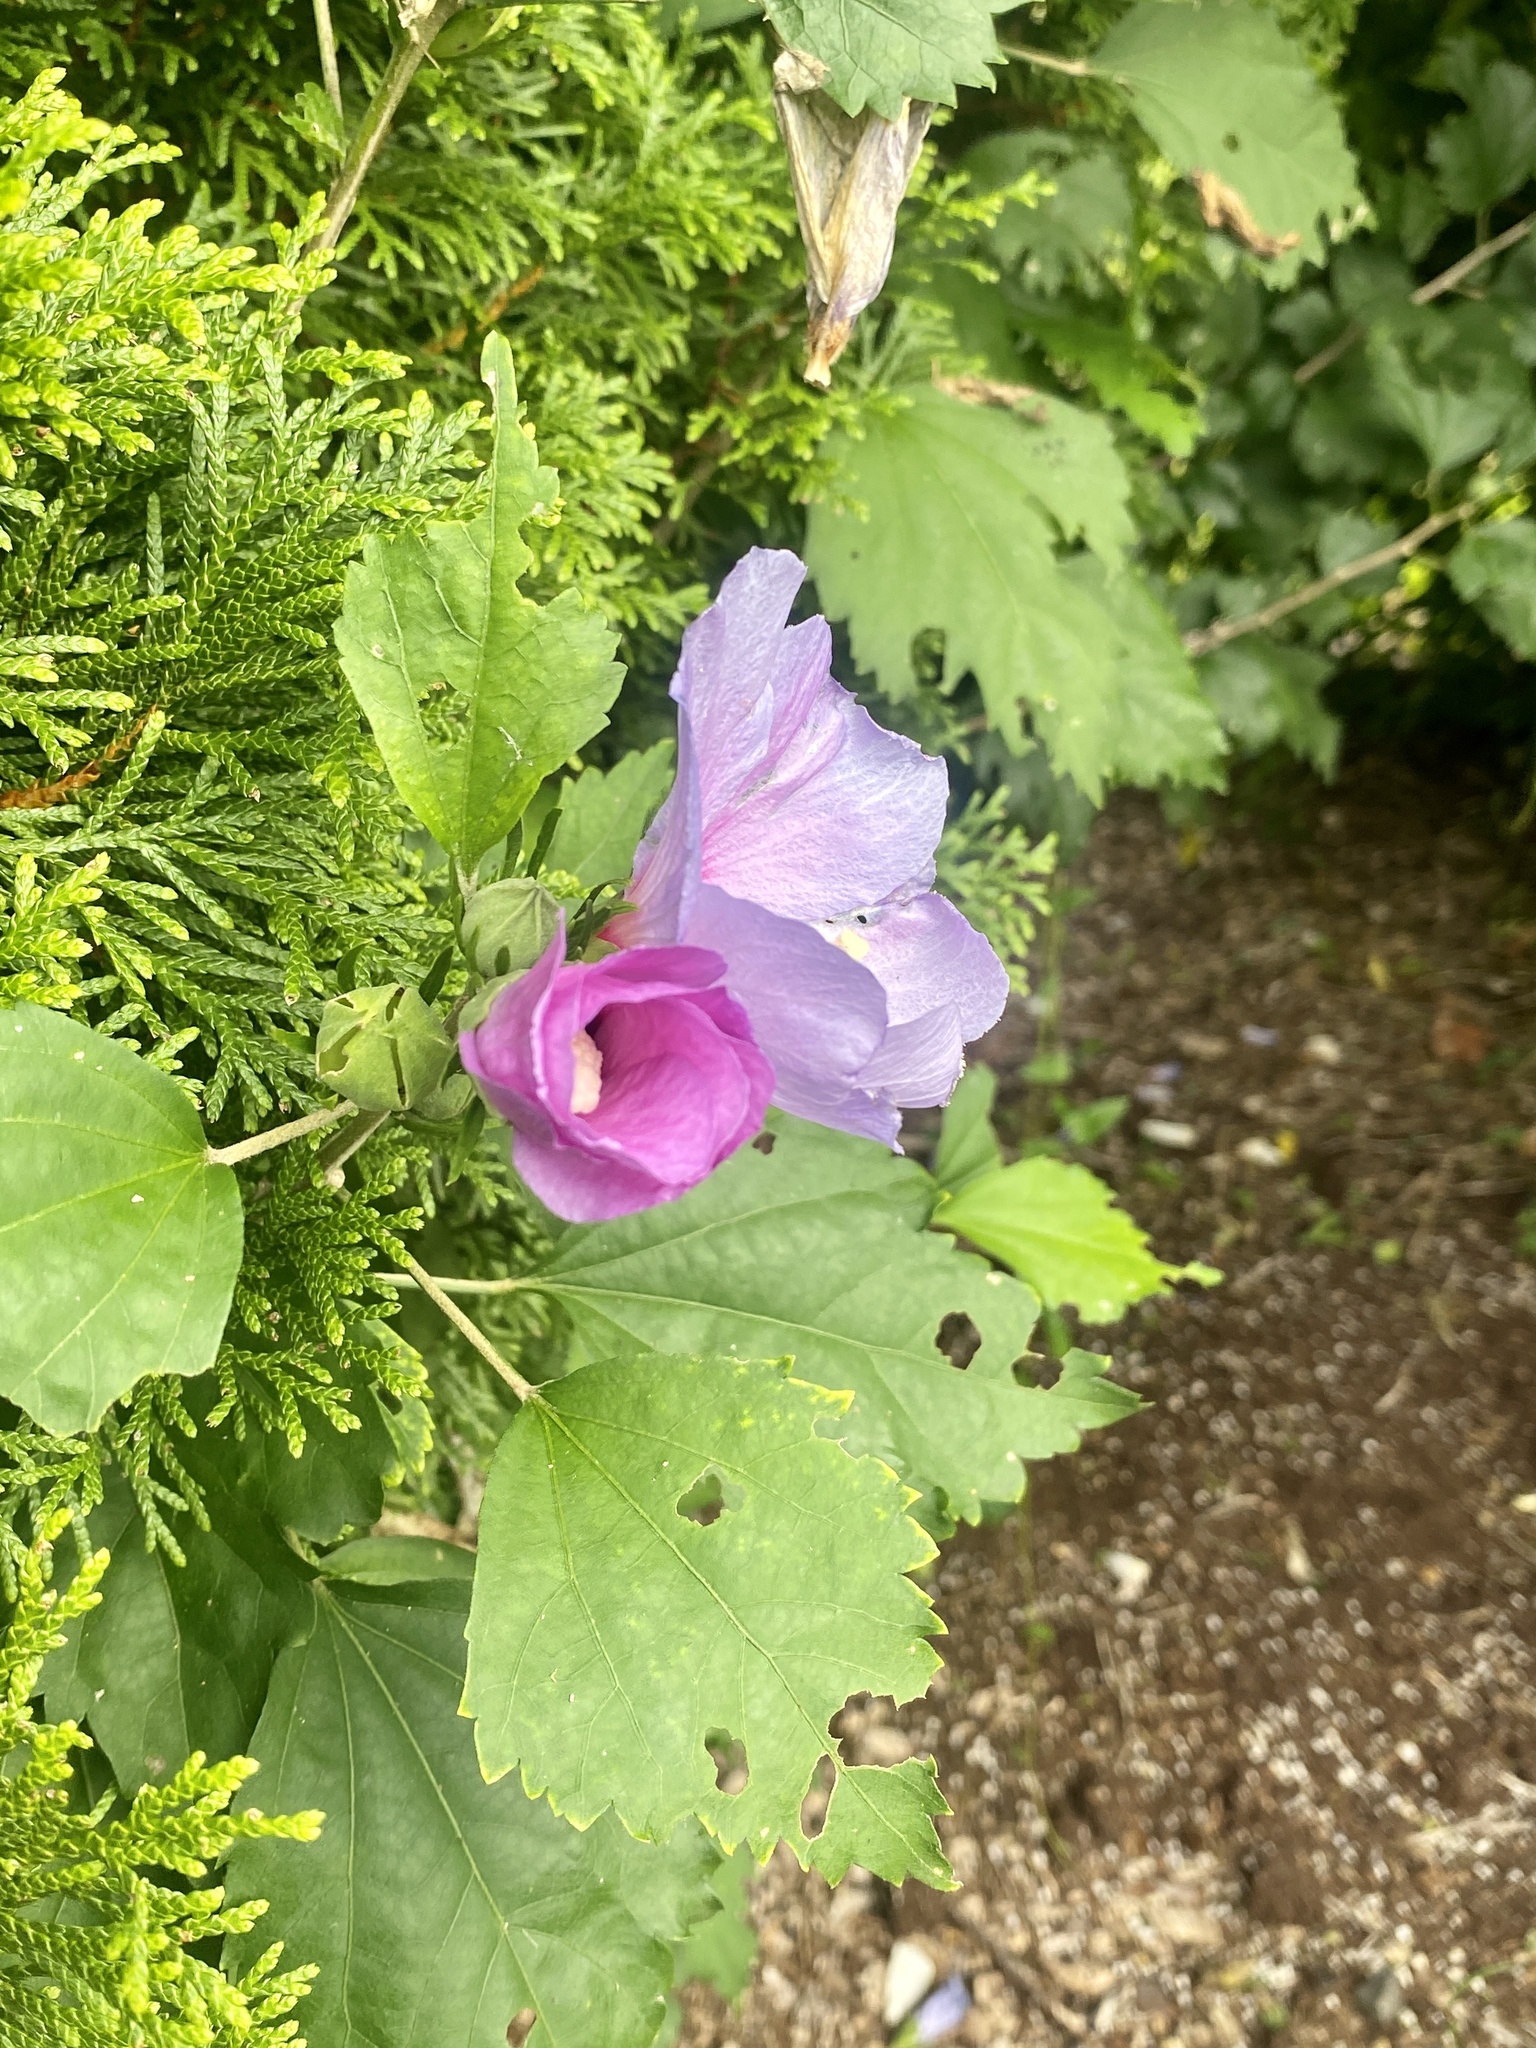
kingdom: Plantae
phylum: Tracheophyta
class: Magnoliopsida
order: Malvales
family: Malvaceae
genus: Hibiscus
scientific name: Hibiscus syriacus
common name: Syrian ketmia
